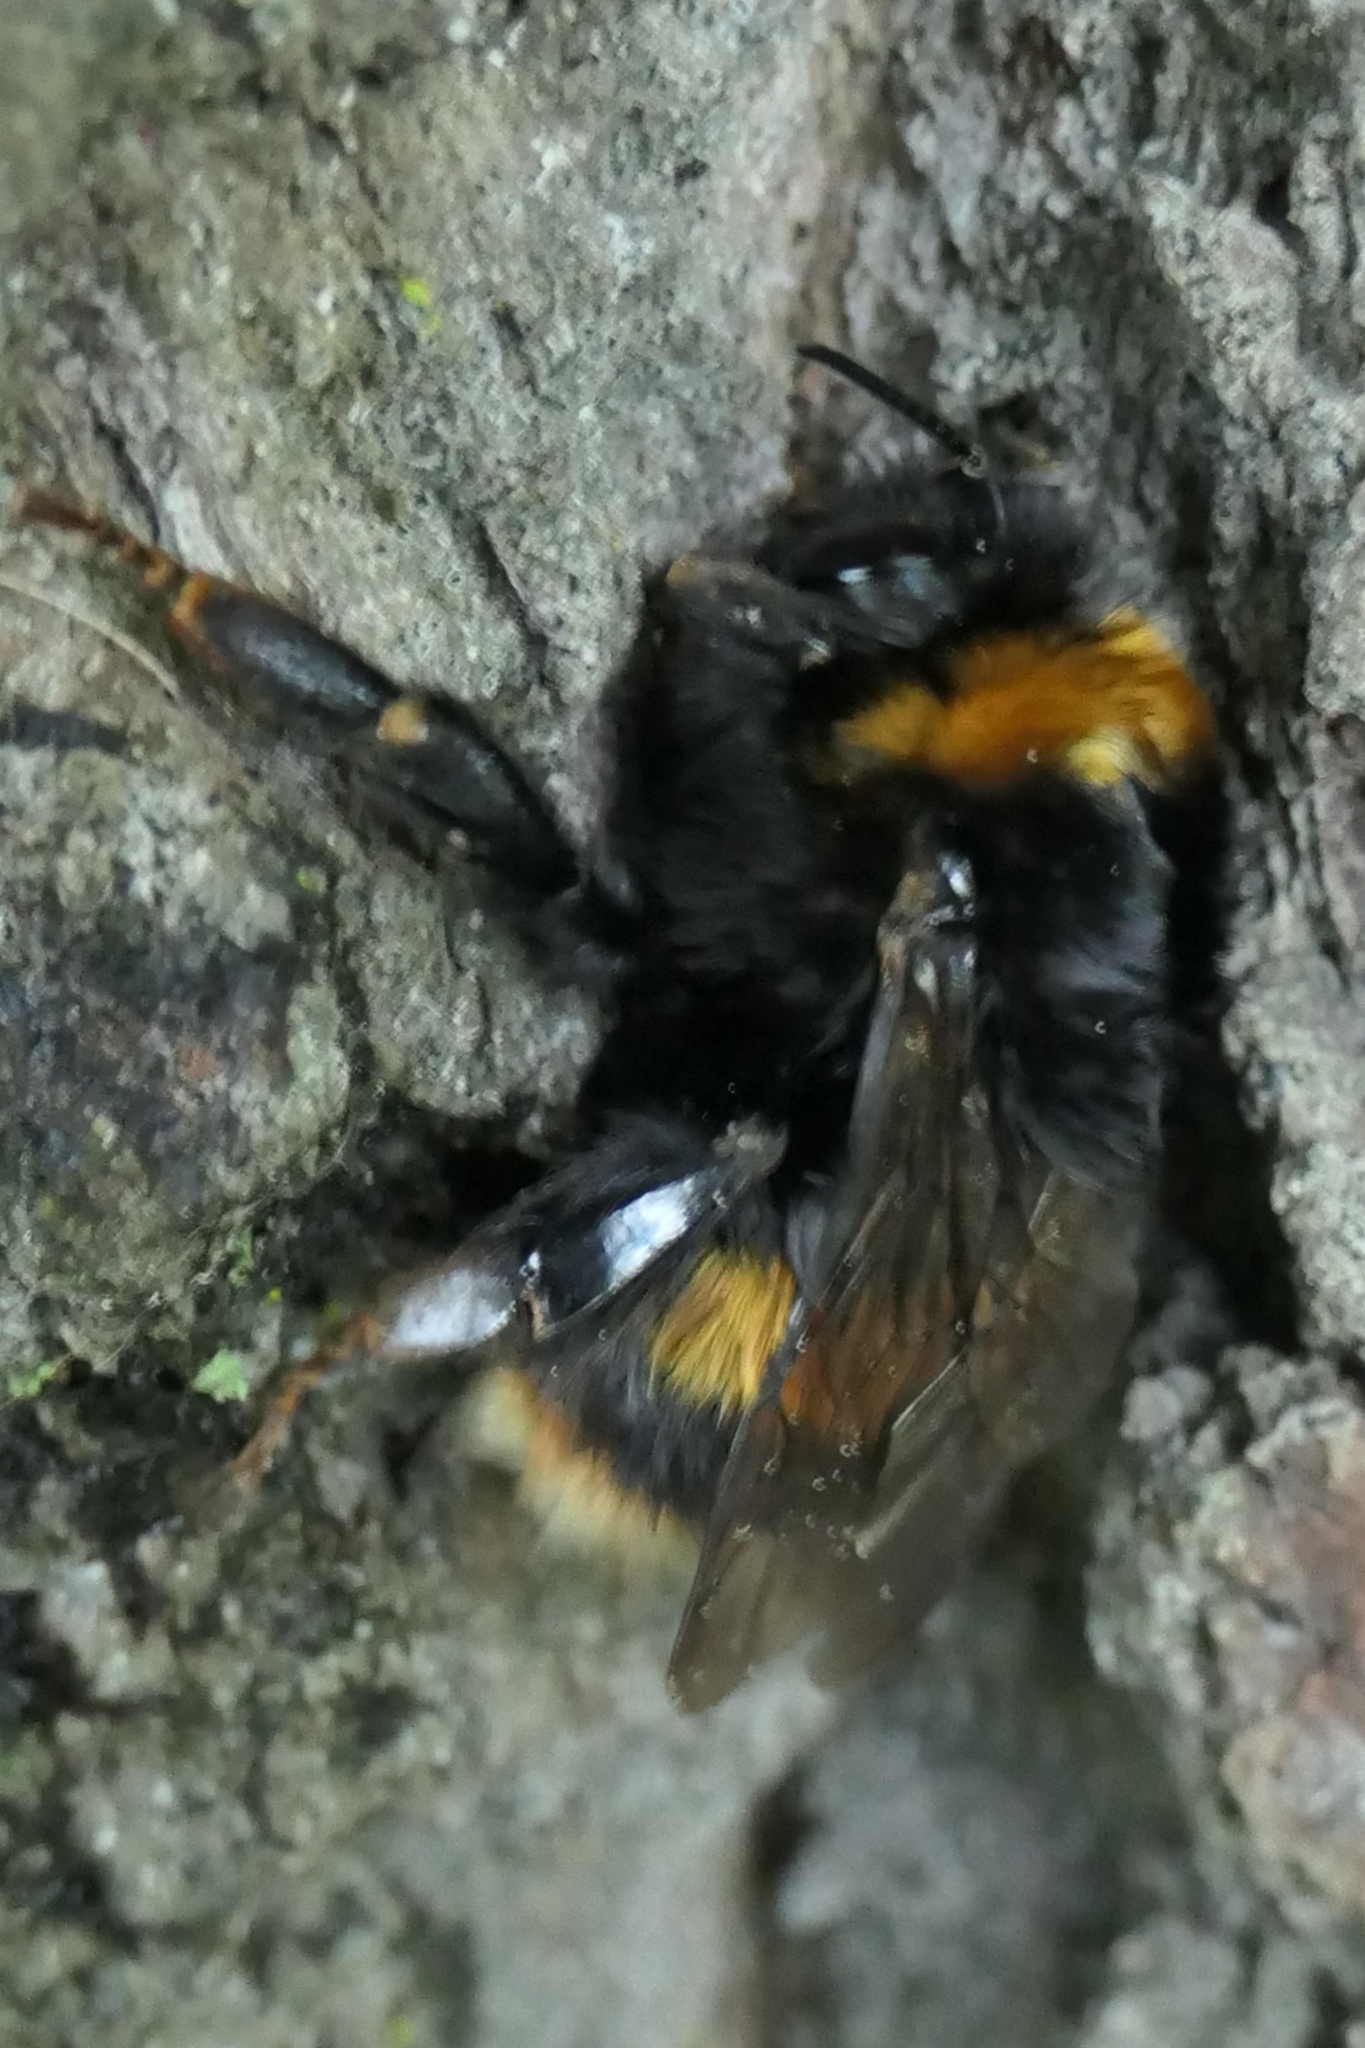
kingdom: Animalia
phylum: Arthropoda
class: Insecta
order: Hymenoptera
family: Apidae
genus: Bombus
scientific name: Bombus terrestris
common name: Buff-tailed bumblebee
